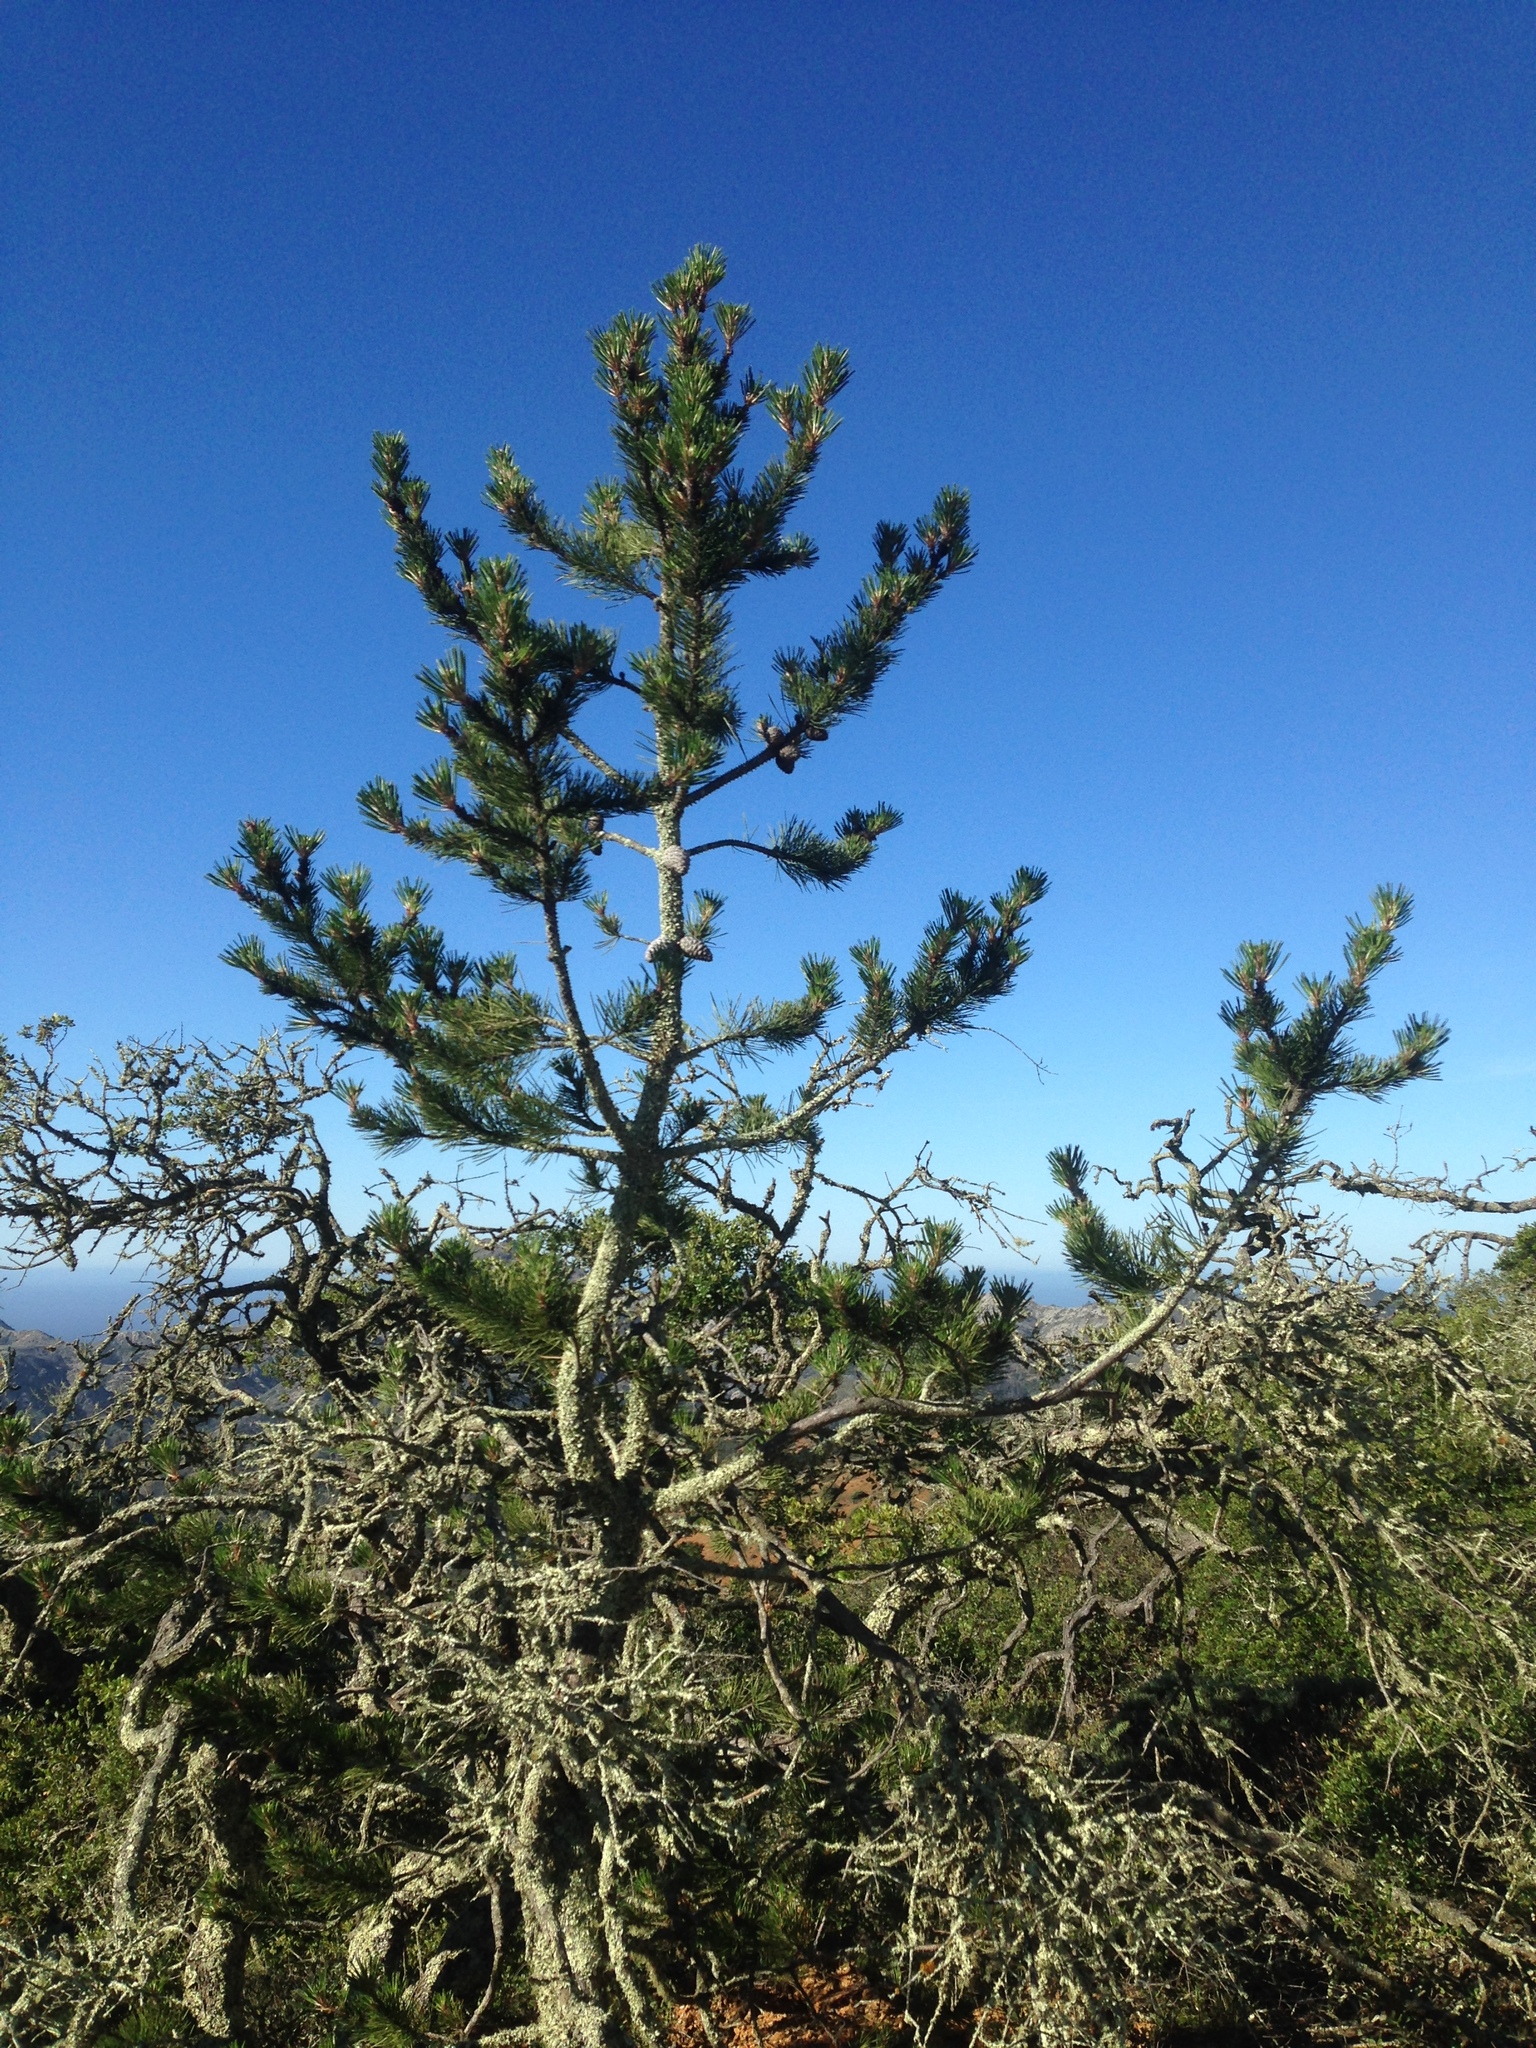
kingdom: Plantae
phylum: Tracheophyta
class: Pinopsida
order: Pinales
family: Pinaceae
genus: Pinus
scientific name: Pinus muricata
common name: Bishop pine
